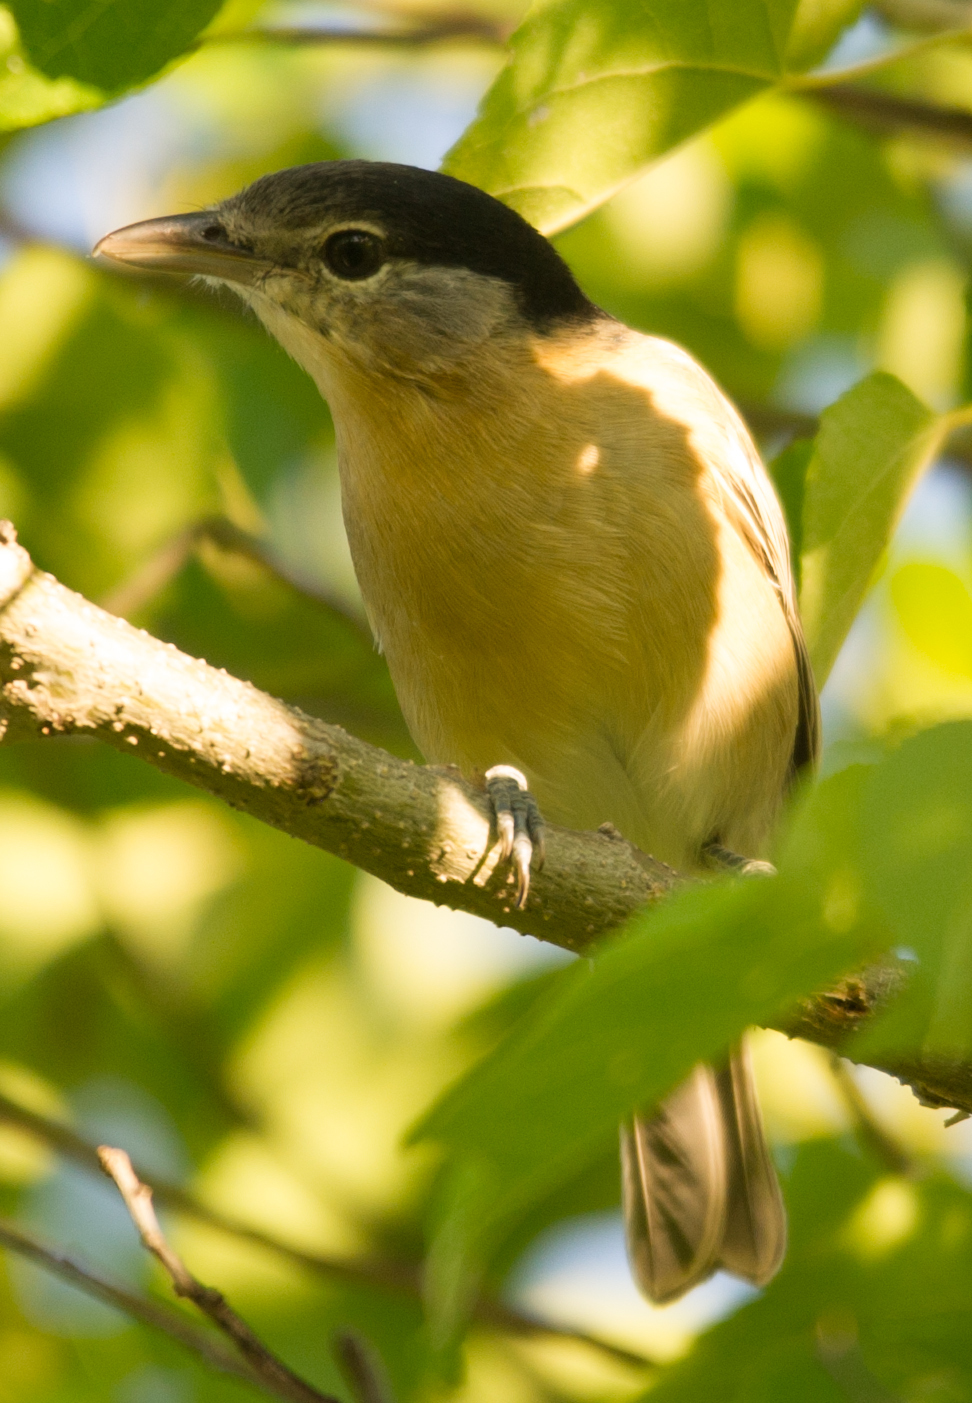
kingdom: Animalia
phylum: Chordata
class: Aves
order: Passeriformes
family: Malaconotidae
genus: Dryoscopus
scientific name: Dryoscopus cubla
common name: Black-backed puffback
